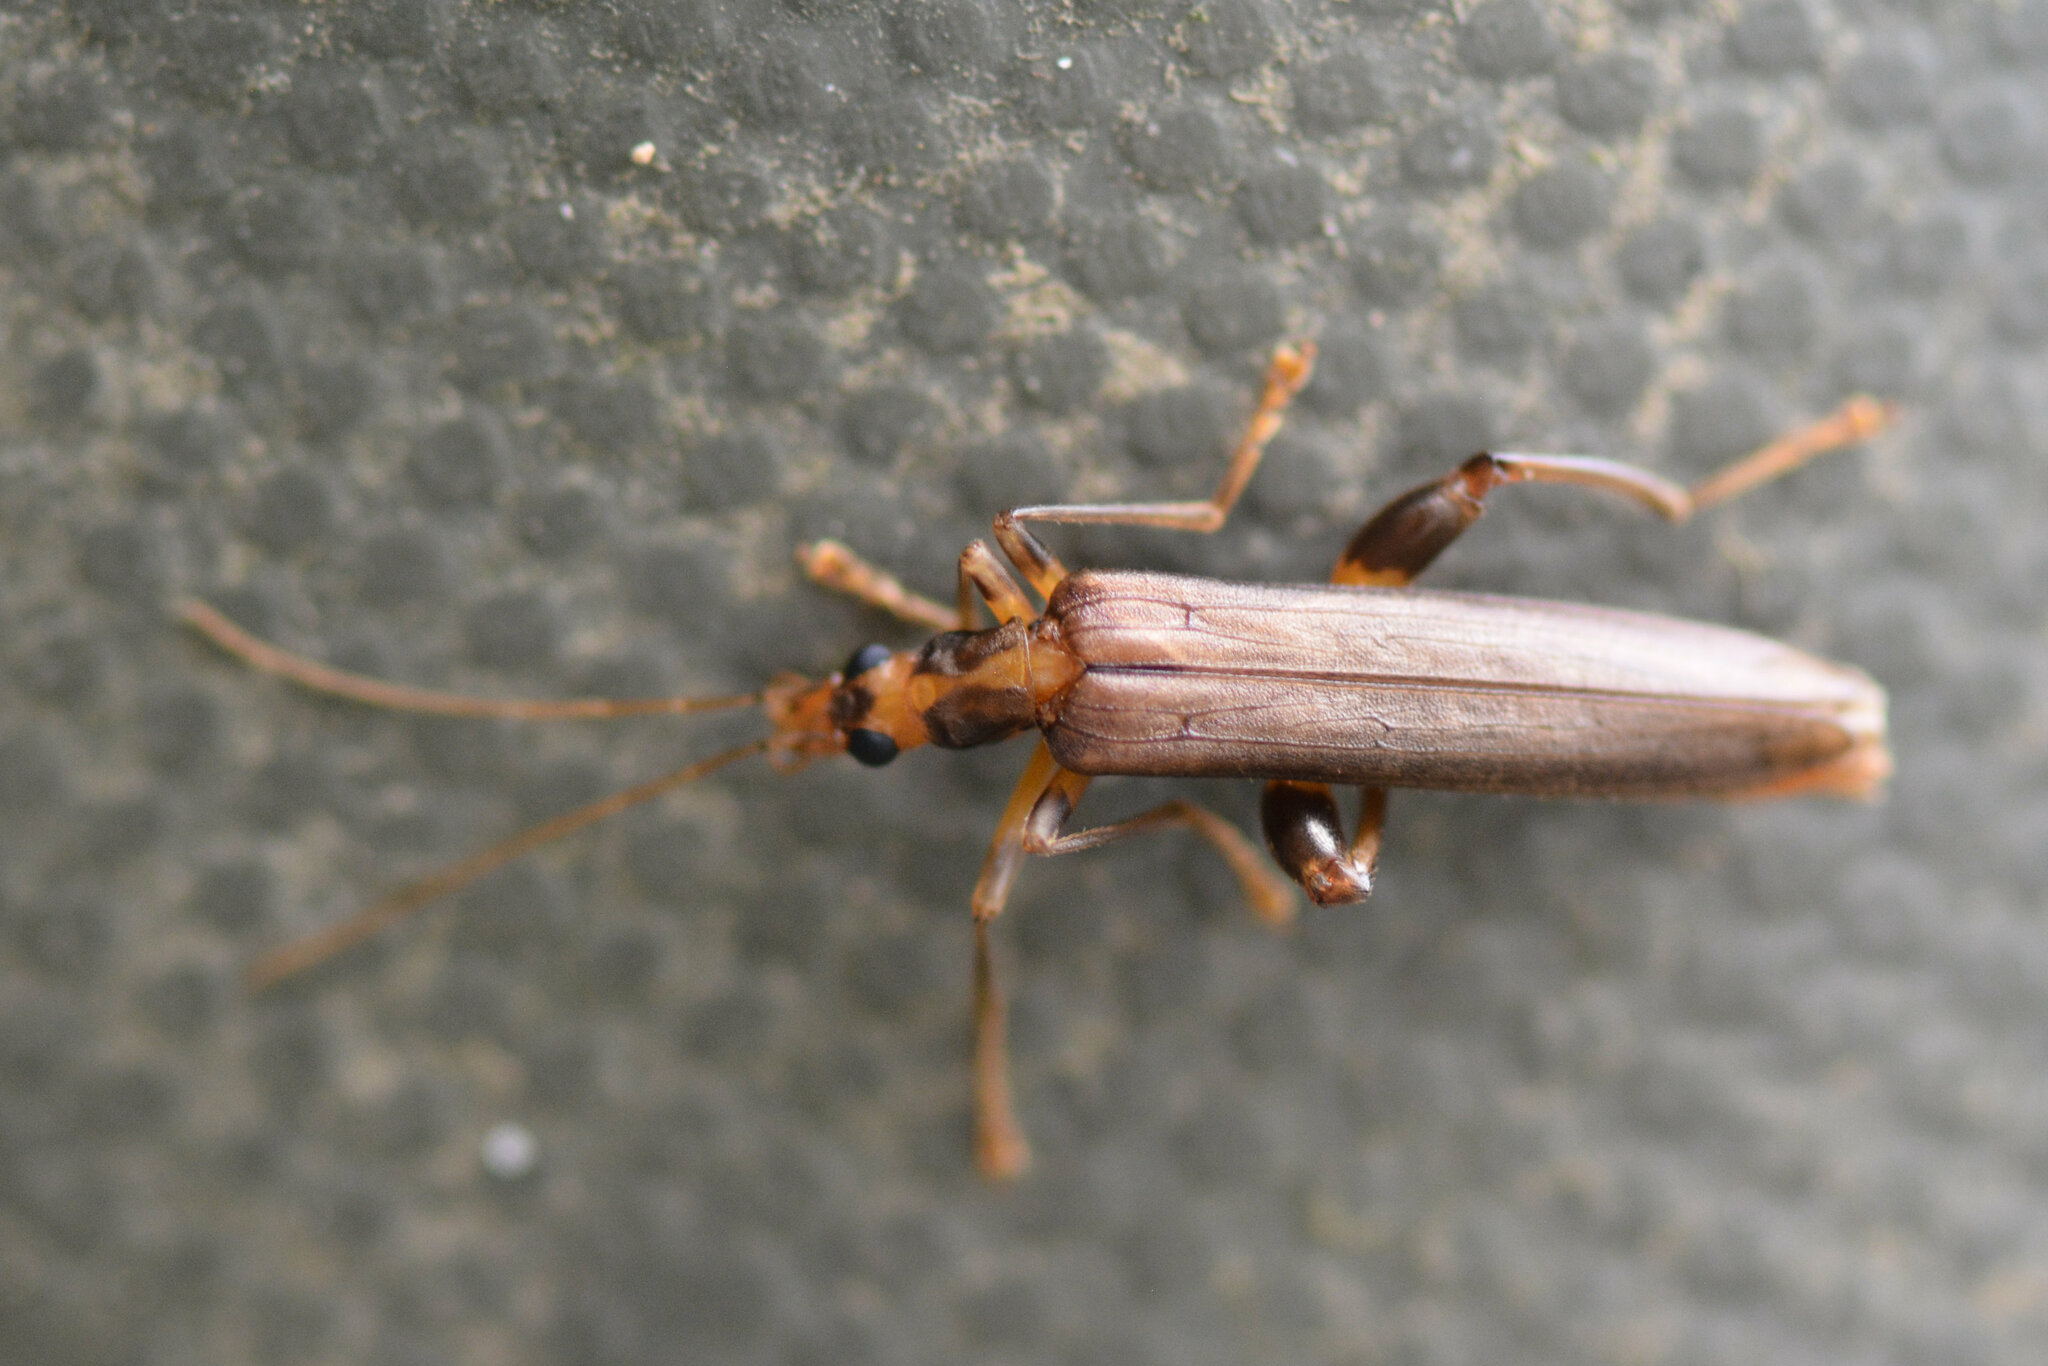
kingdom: Animalia
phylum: Arthropoda
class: Insecta
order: Coleoptera
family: Oedemeridae
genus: Oedemera
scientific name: Oedemera femoralis
